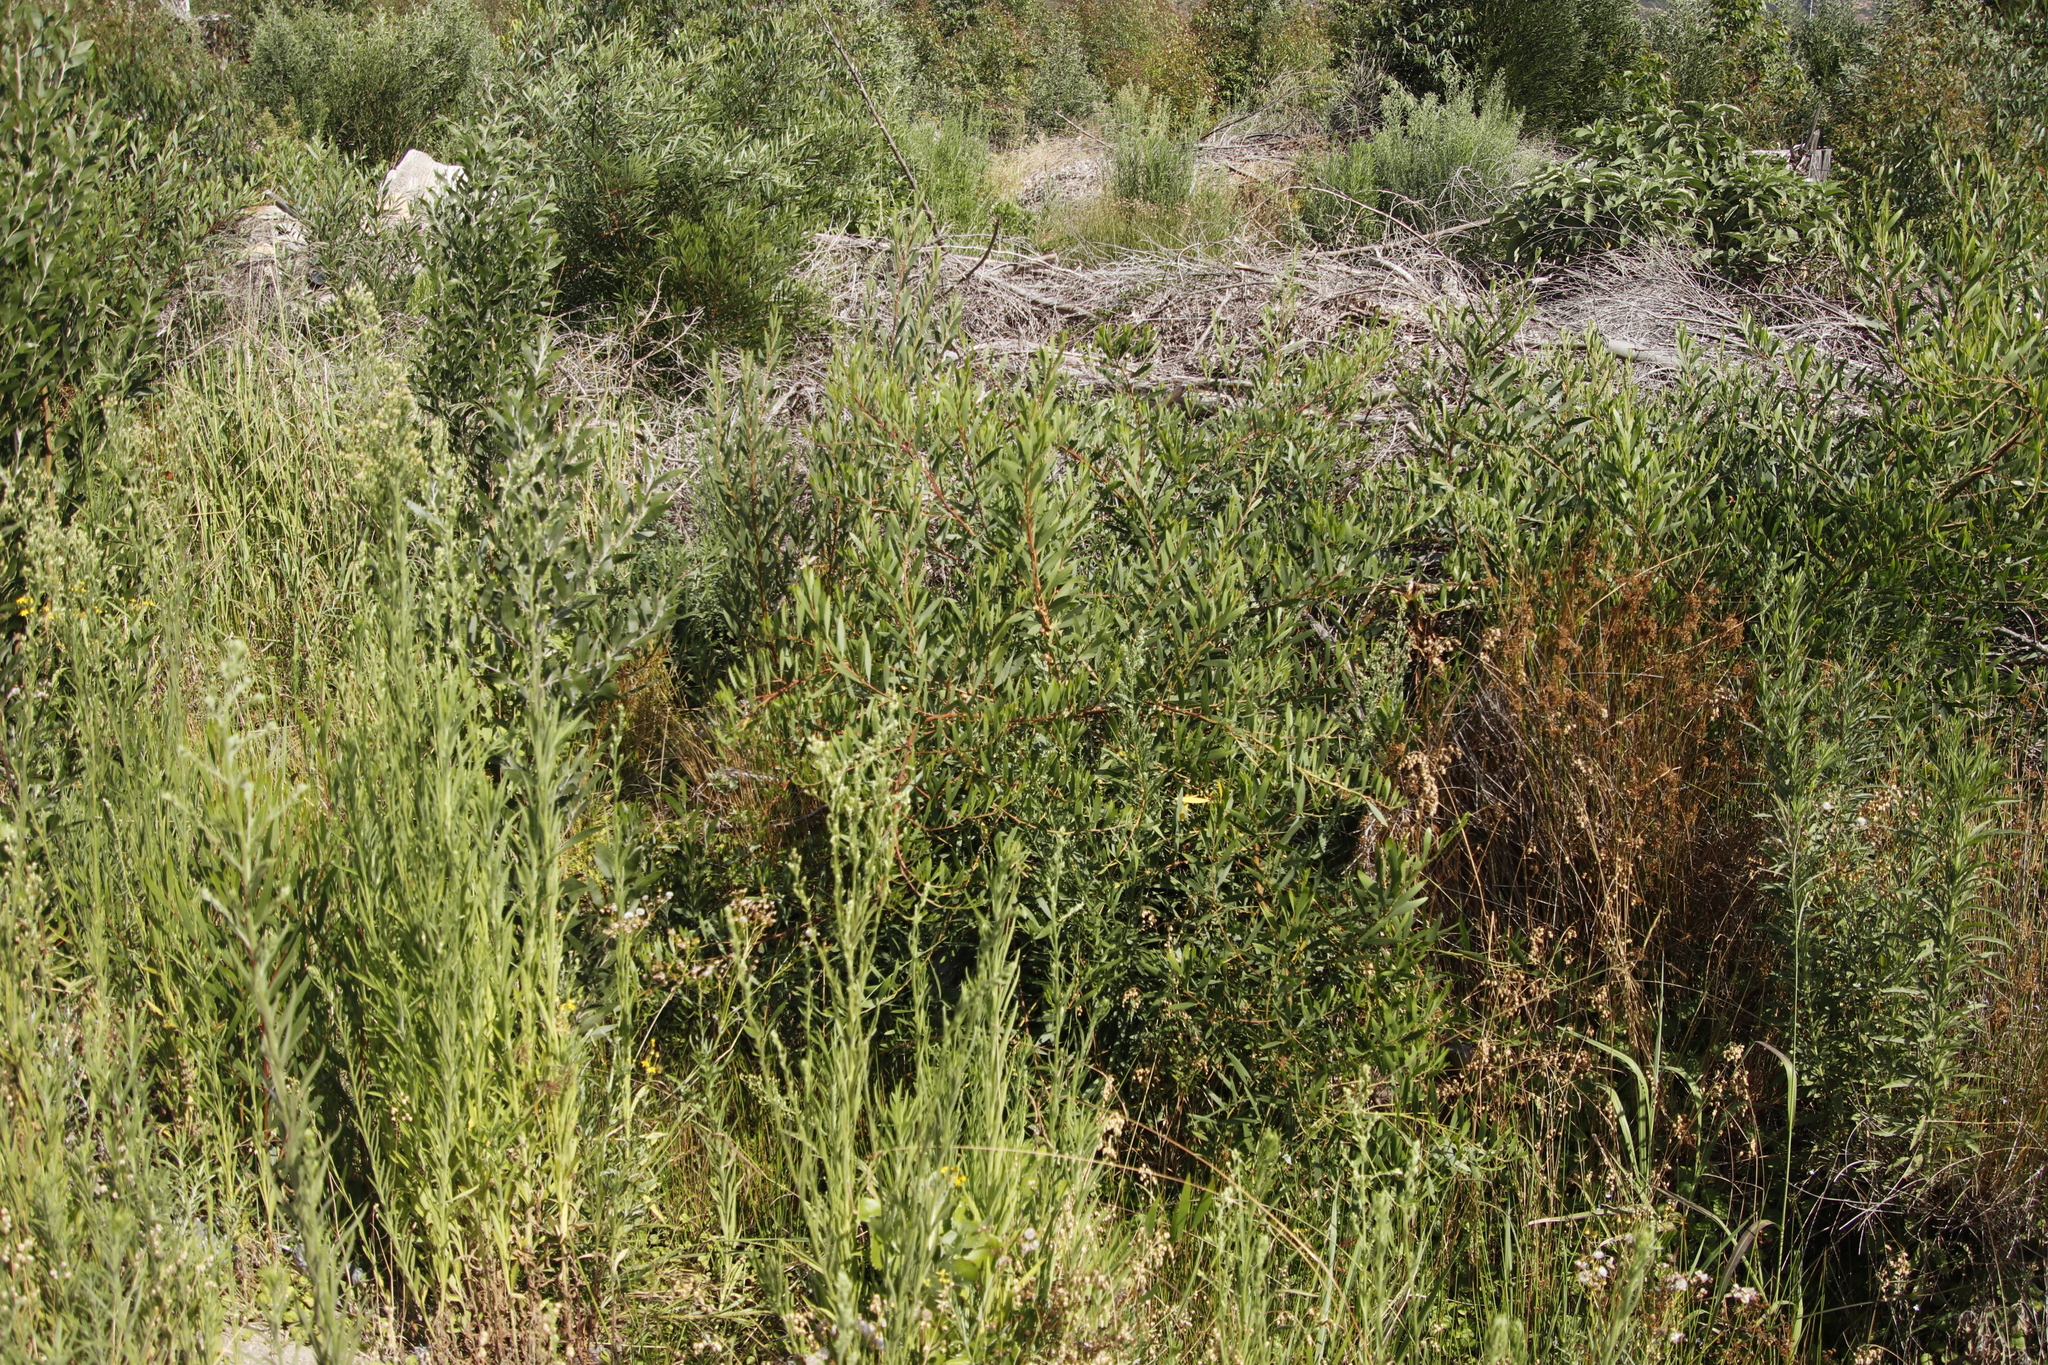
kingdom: Plantae
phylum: Tracheophyta
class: Magnoliopsida
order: Fabales
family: Fabaceae
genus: Acacia
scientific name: Acacia melanoxylon
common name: Blackwood
